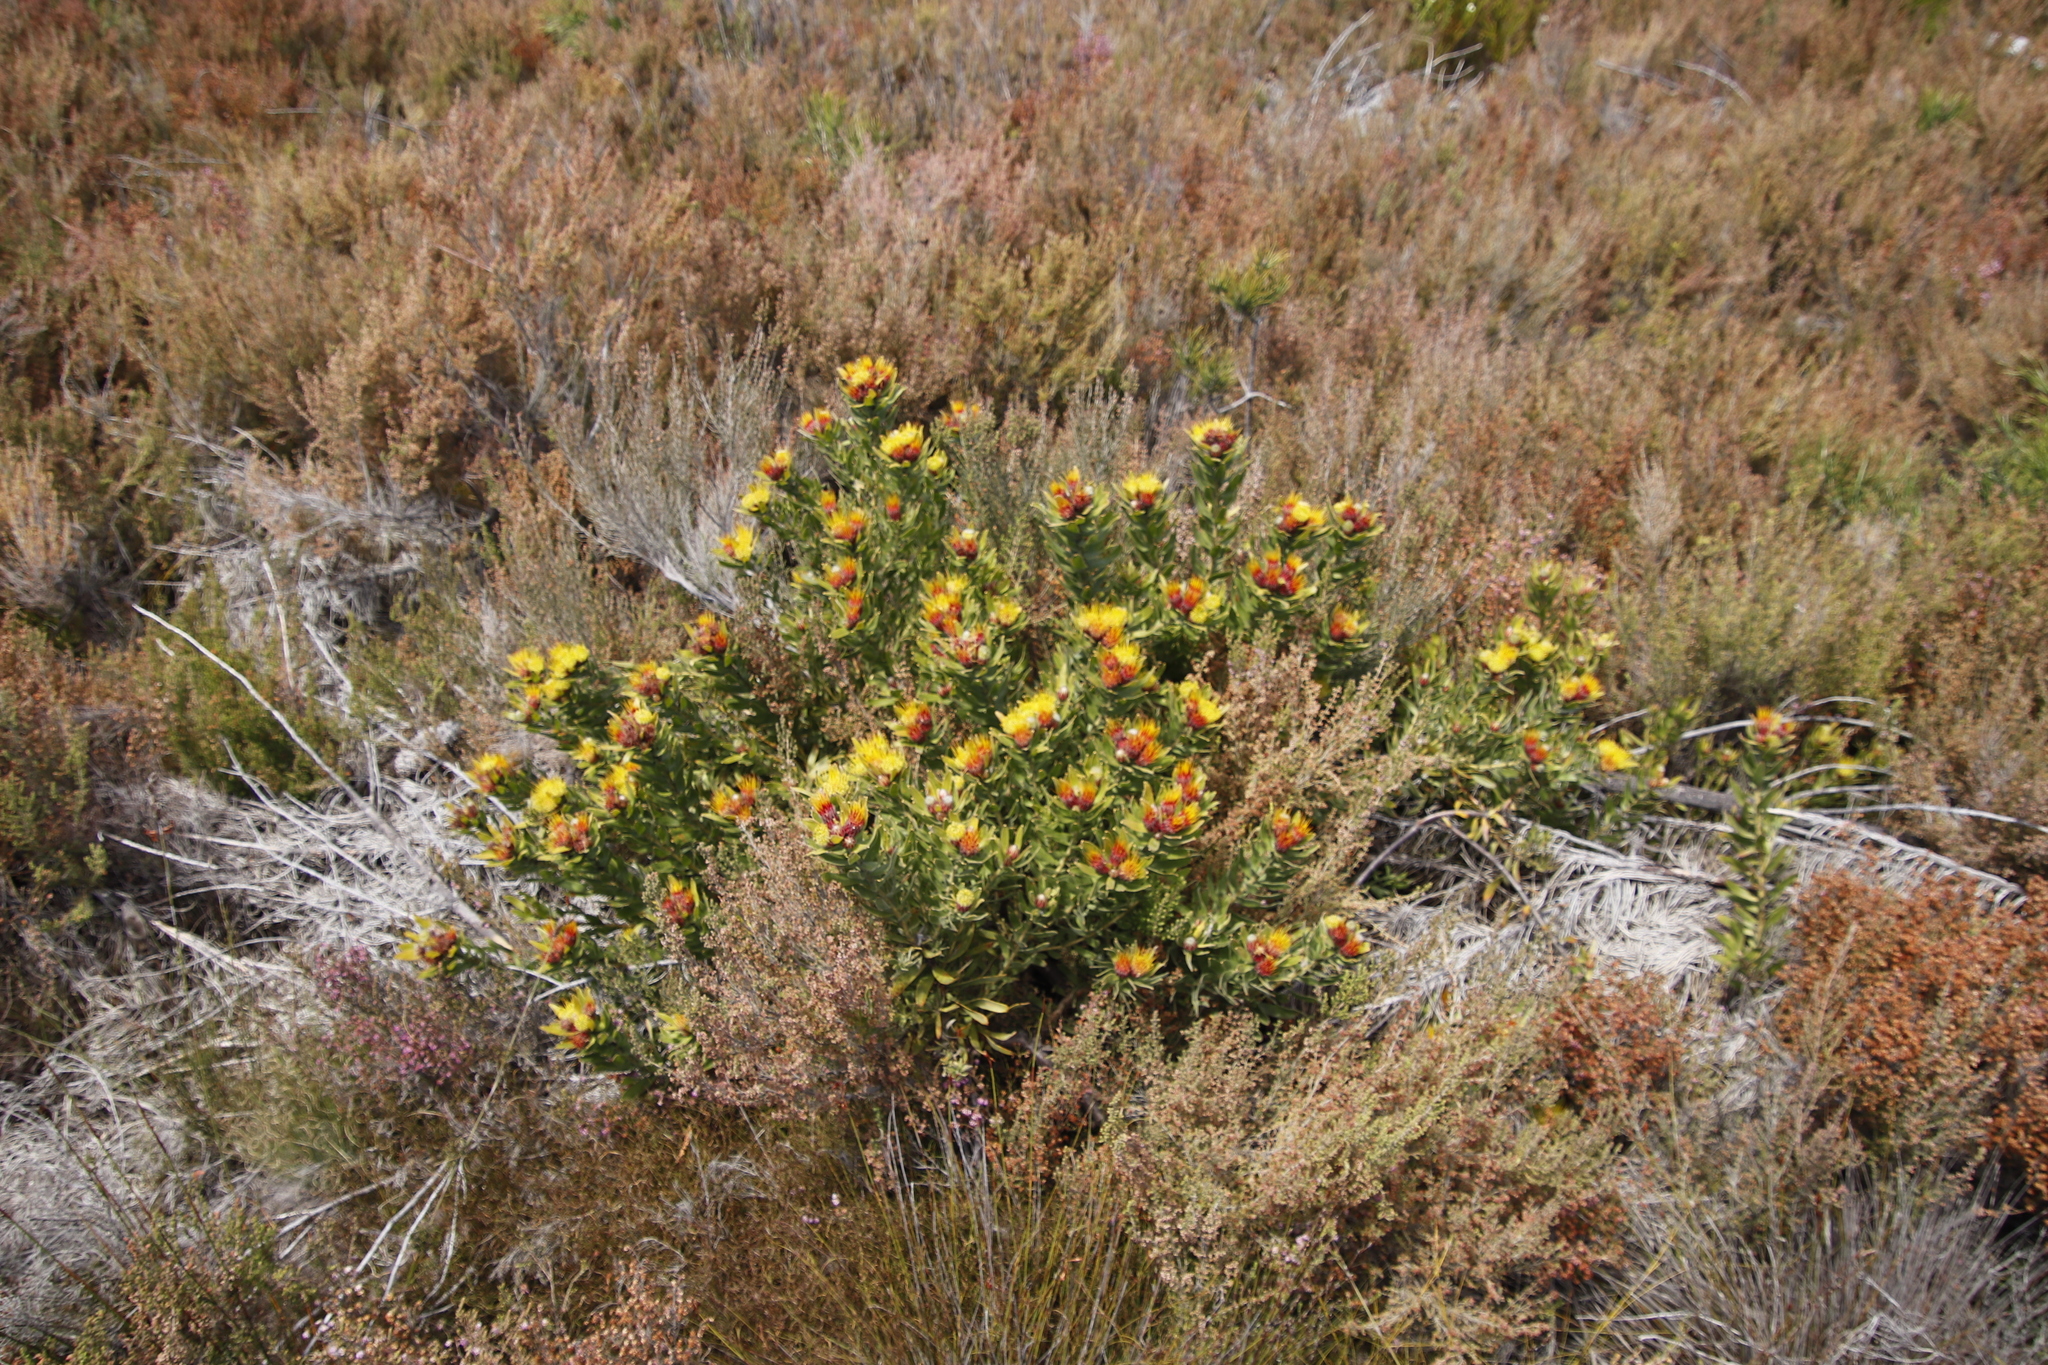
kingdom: Plantae
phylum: Tracheophyta
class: Magnoliopsida
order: Proteales
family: Proteaceae
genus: Leucospermum
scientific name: Leucospermum oleifolium
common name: Matches
